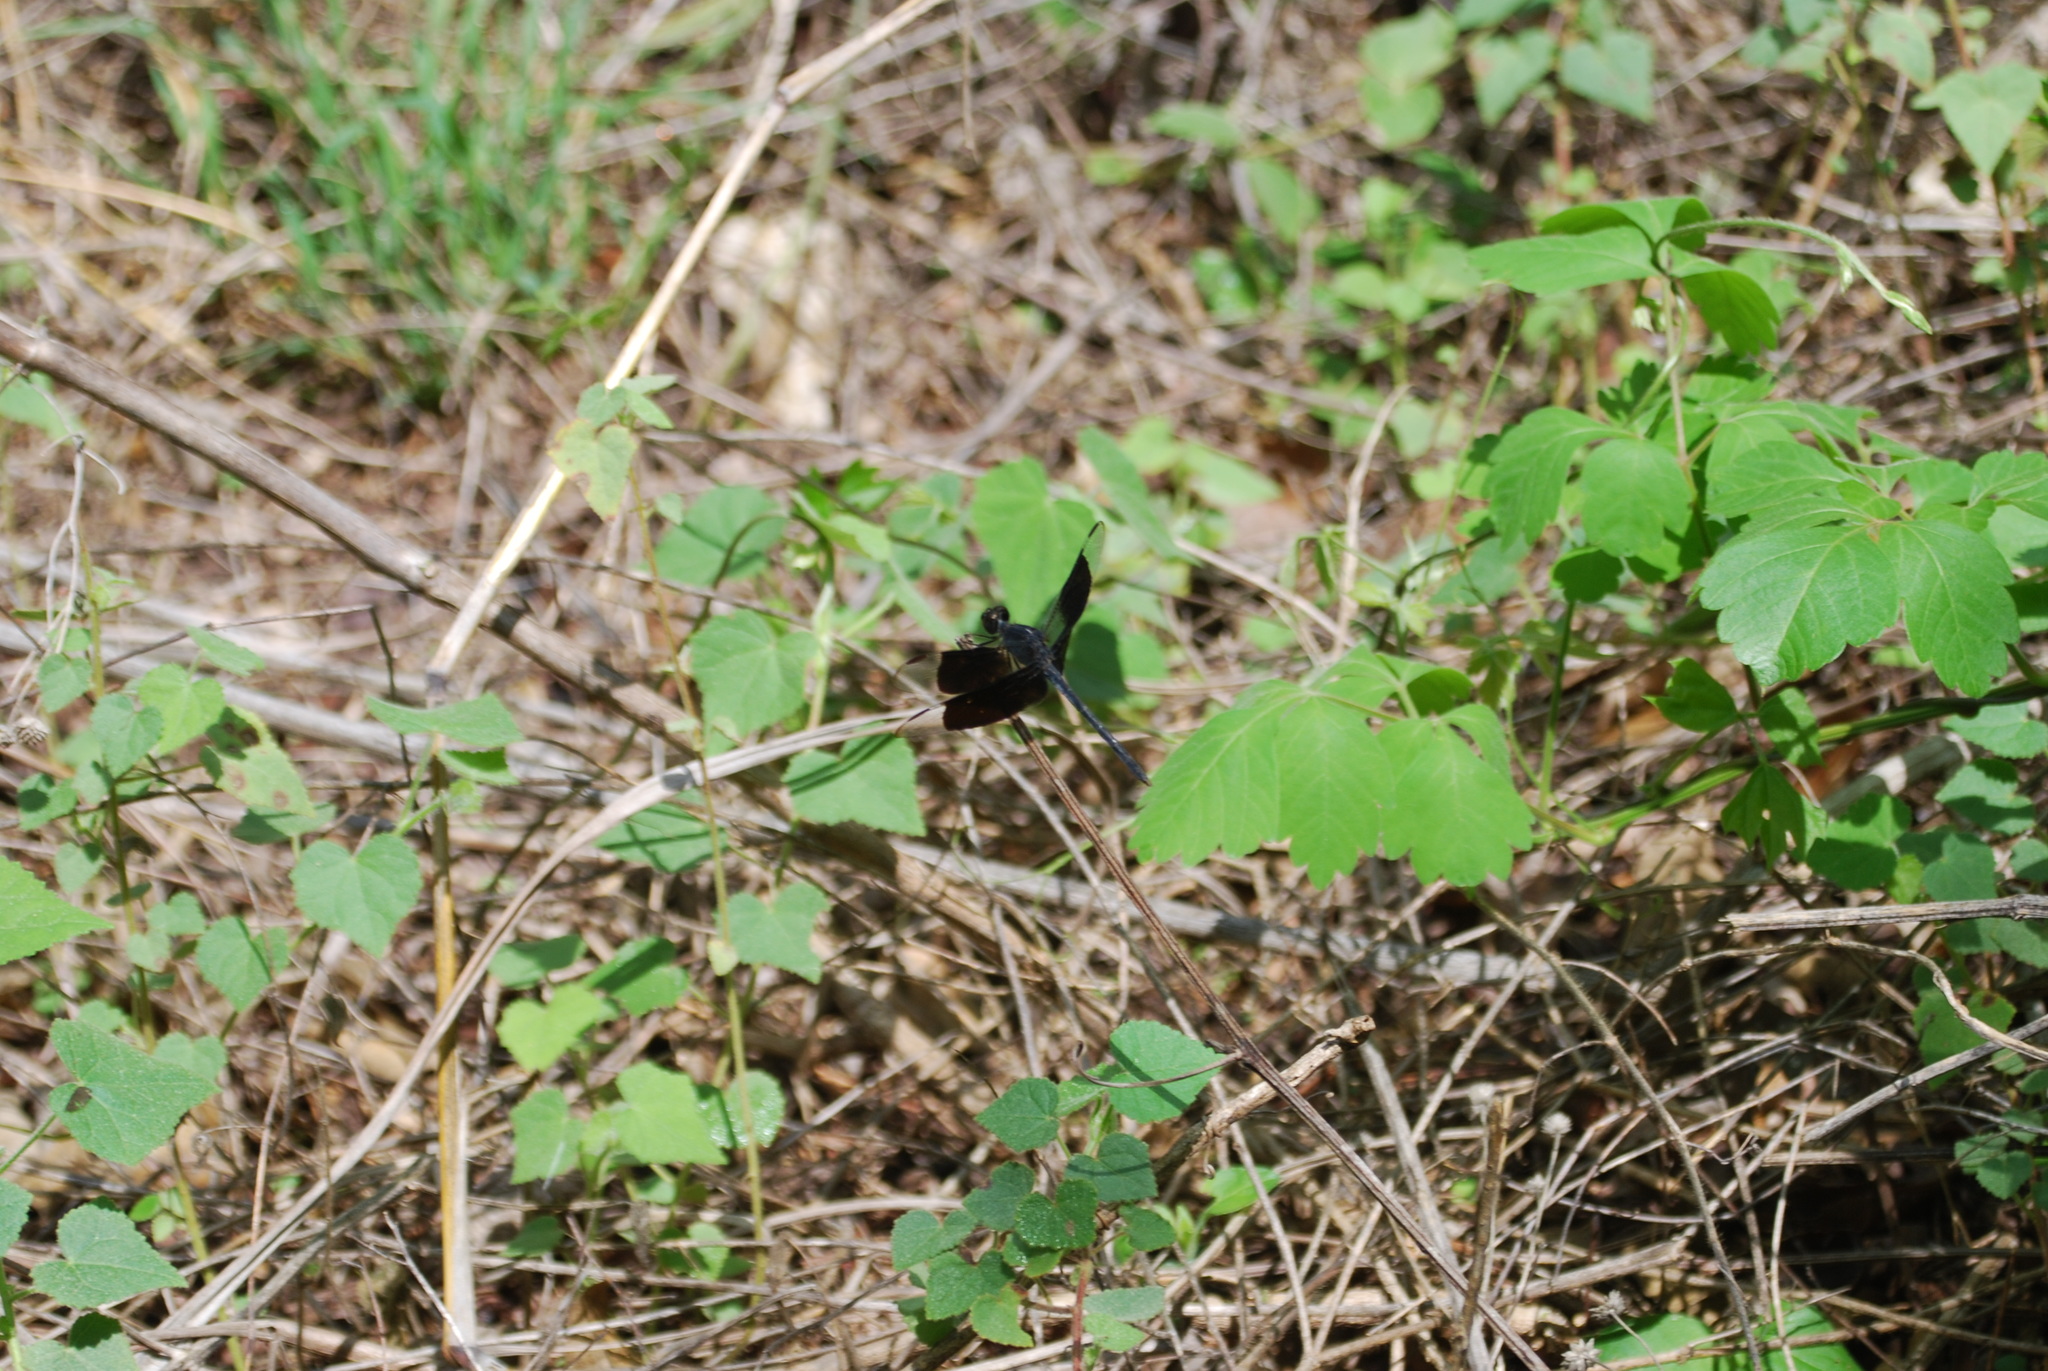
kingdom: Animalia
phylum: Arthropoda
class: Insecta
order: Odonata
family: Libellulidae
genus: Erythrodiplax
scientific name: Erythrodiplax funerea
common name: Black-winged dragonlet
